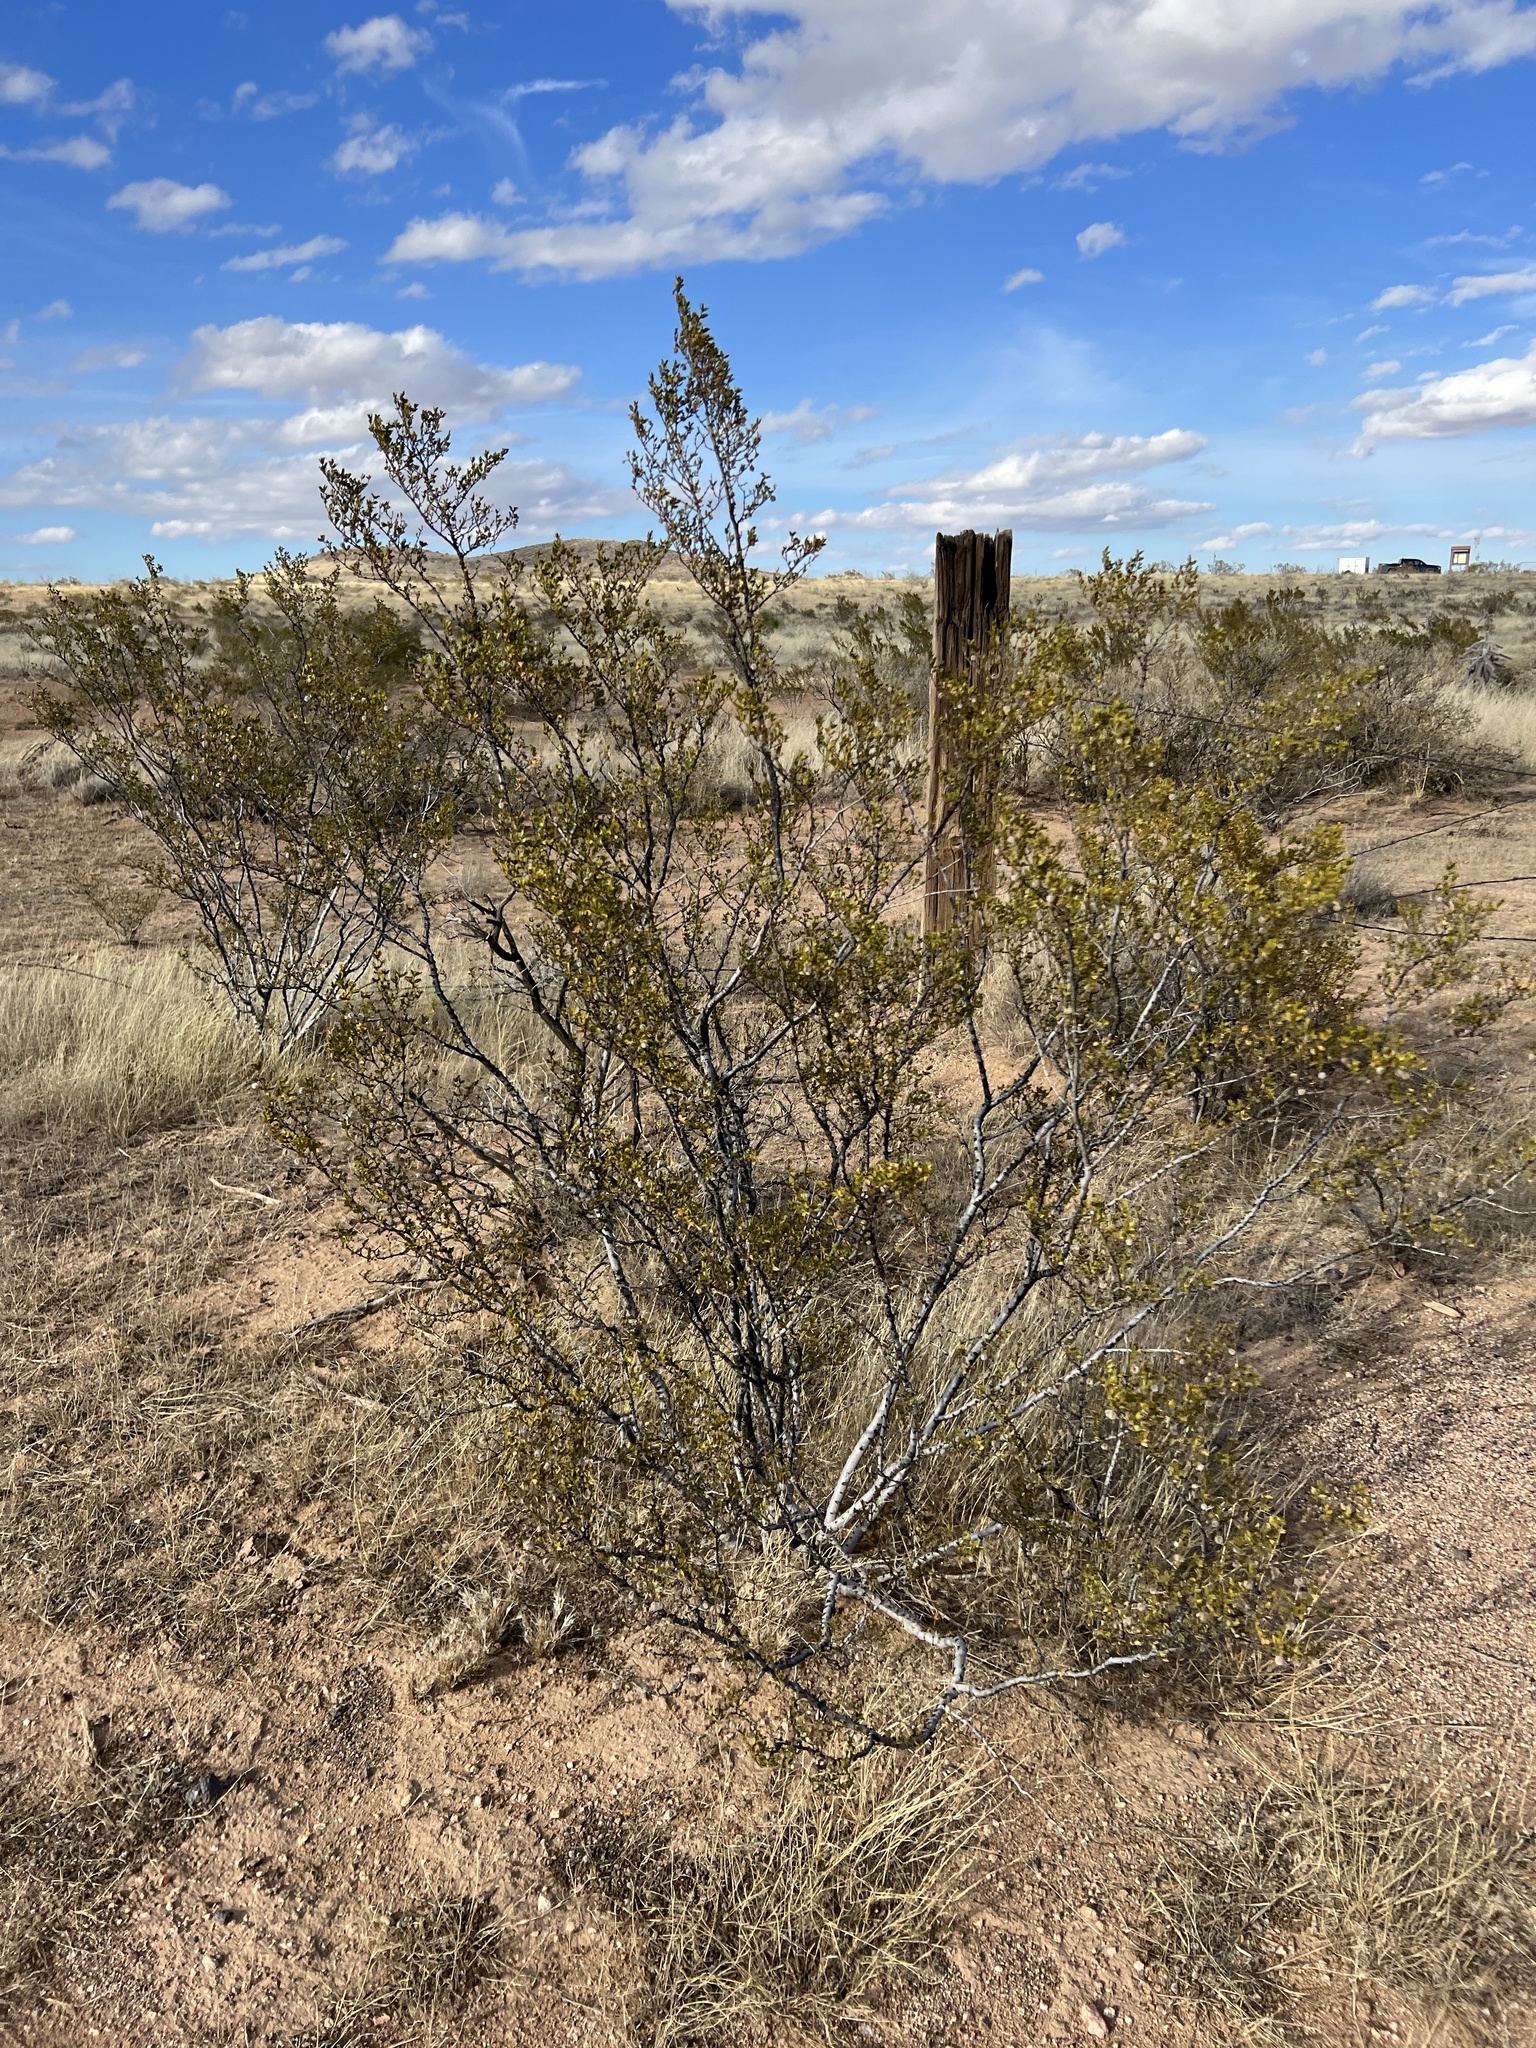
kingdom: Plantae
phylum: Tracheophyta
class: Magnoliopsida
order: Zygophyllales
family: Zygophyllaceae
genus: Larrea
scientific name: Larrea tridentata
